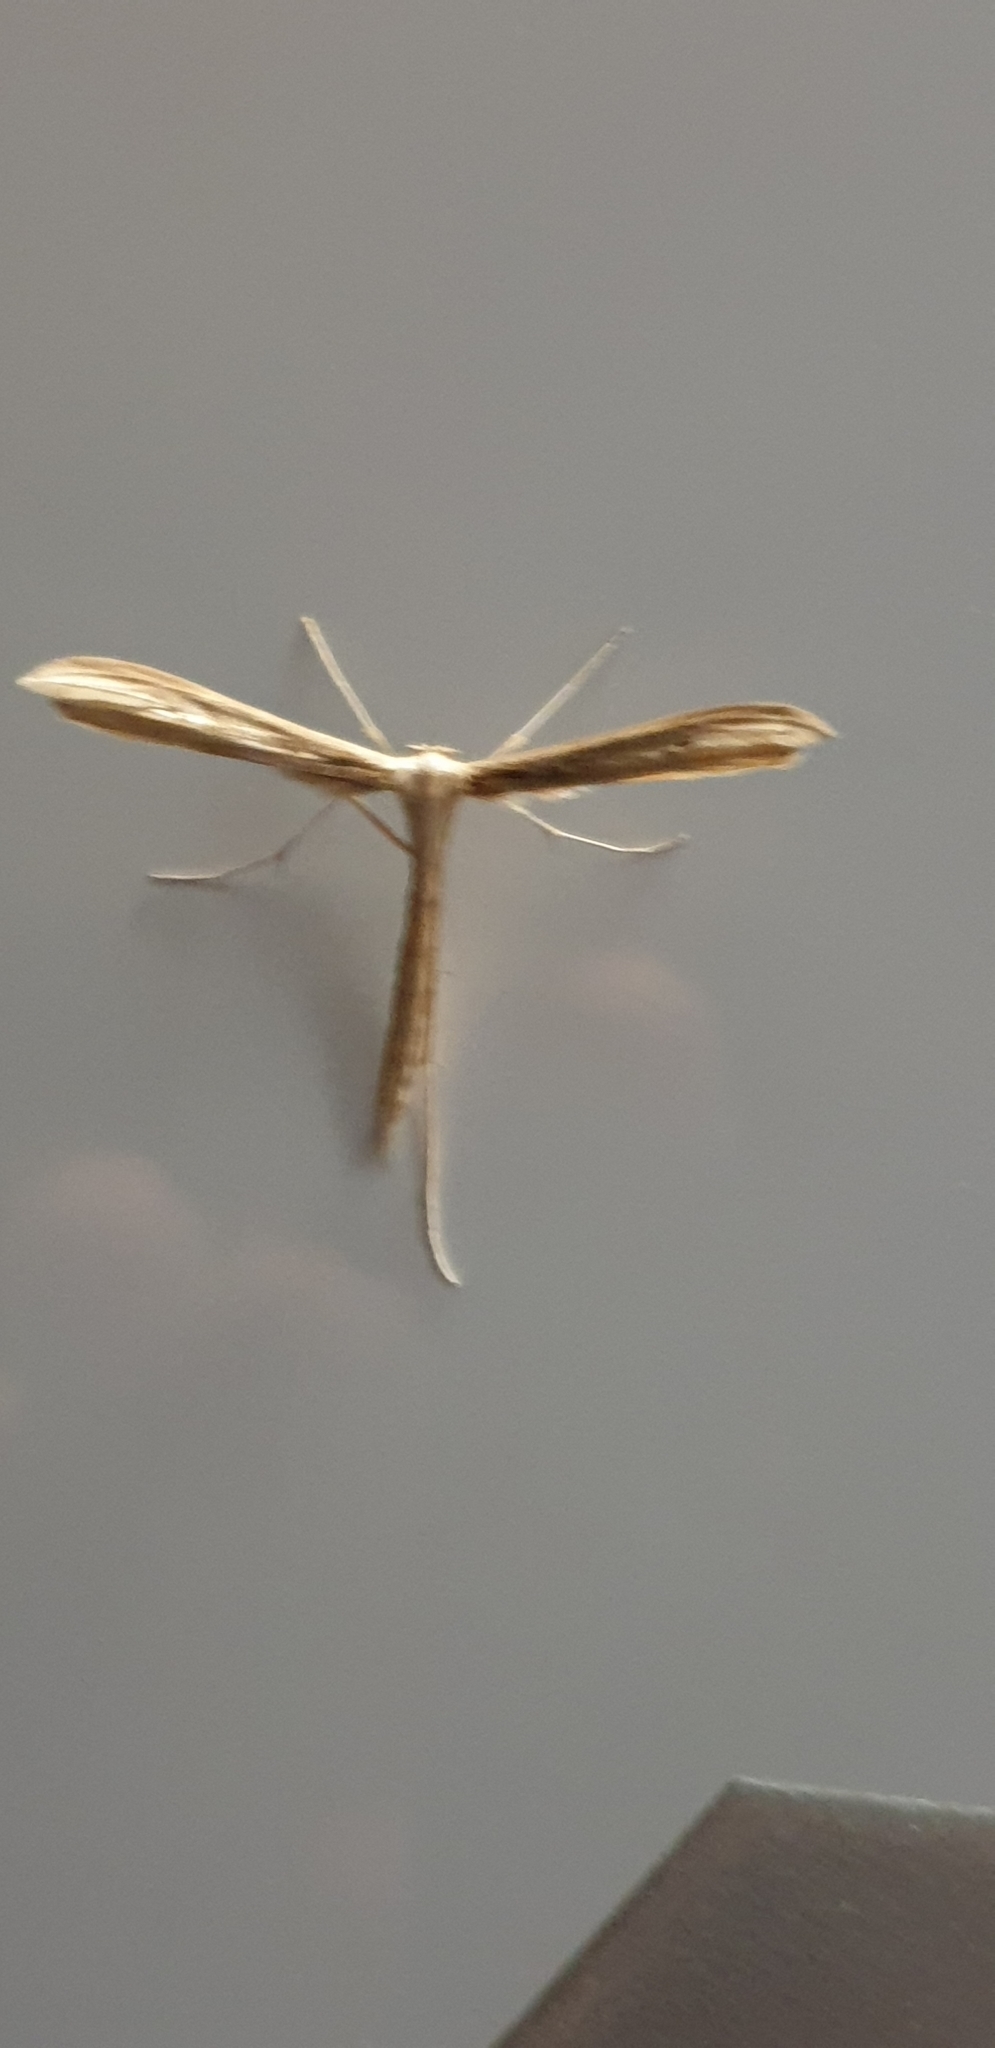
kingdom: Animalia
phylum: Arthropoda
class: Insecta
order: Lepidoptera
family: Pterophoridae
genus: Hellinsia
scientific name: Hellinsia balanotes
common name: Baccharis borer
